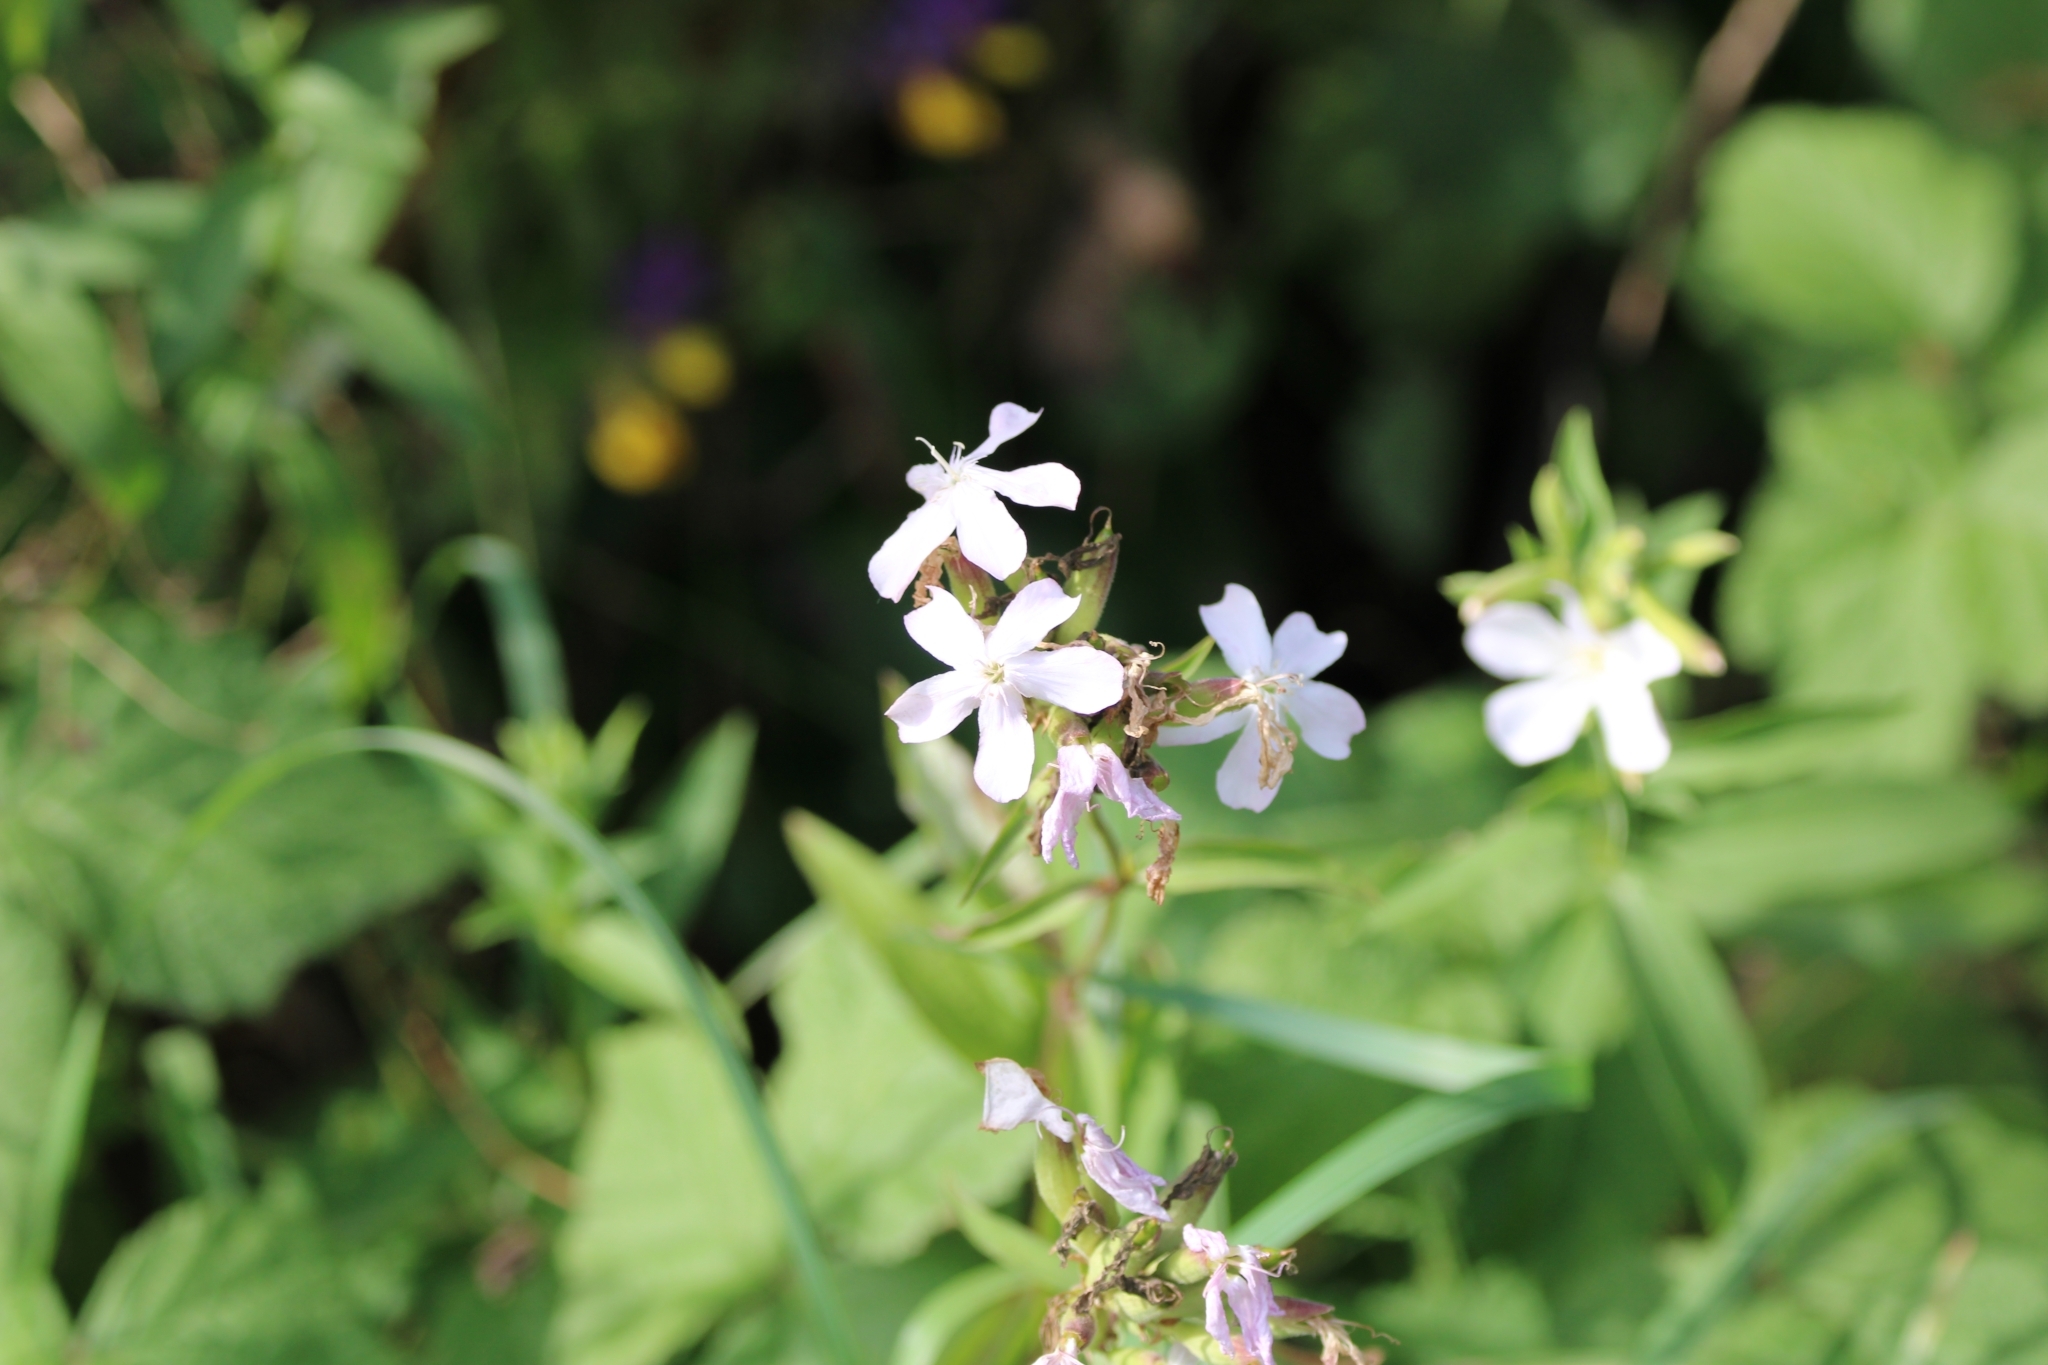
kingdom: Plantae
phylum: Tracheophyta
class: Magnoliopsida
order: Caryophyllales
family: Caryophyllaceae
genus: Saponaria
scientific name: Saponaria officinalis
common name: Soapwort
